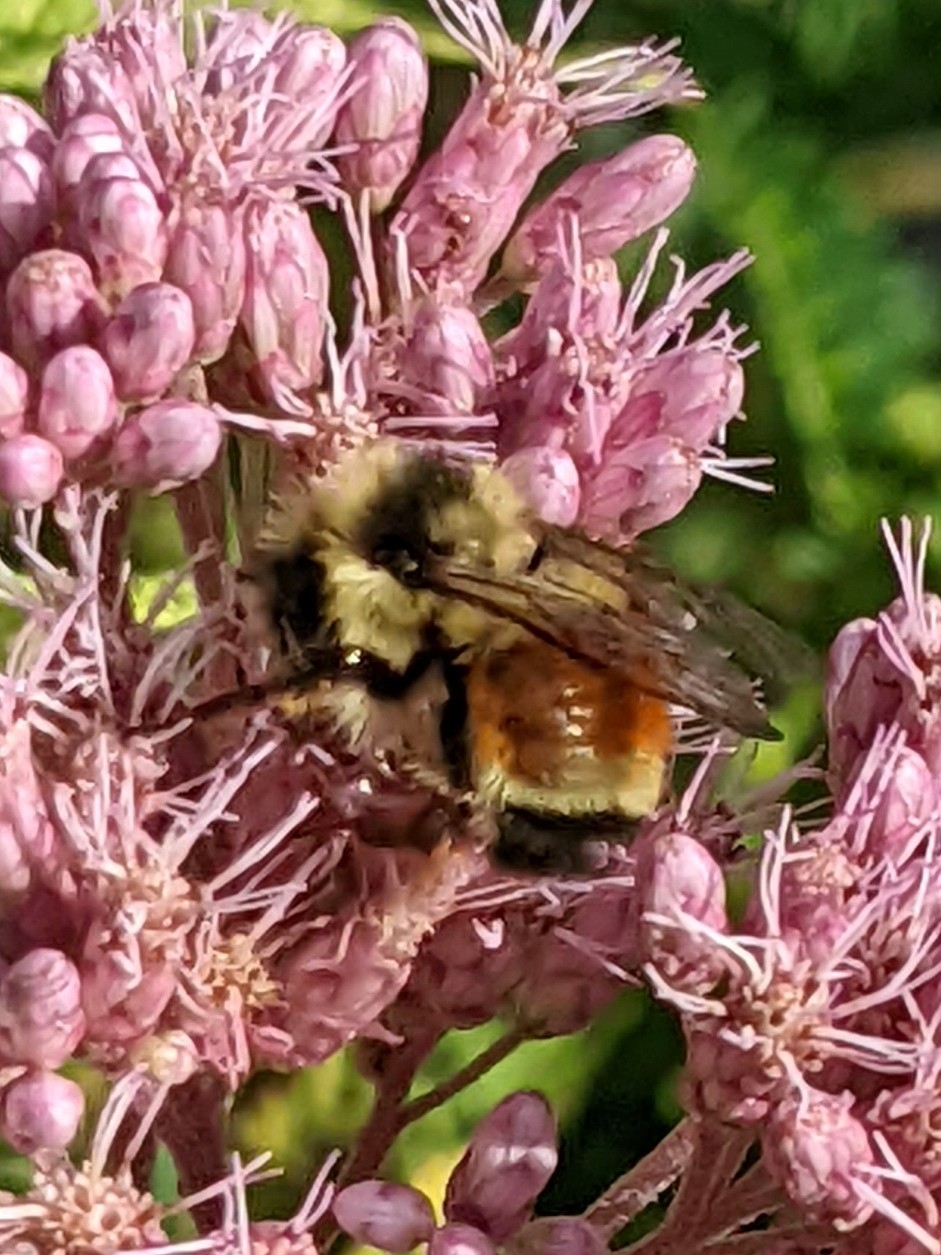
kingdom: Animalia
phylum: Arthropoda
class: Insecta
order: Hymenoptera
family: Apidae
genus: Bombus
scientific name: Bombus ternarius
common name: Tri-colored bumble bee
